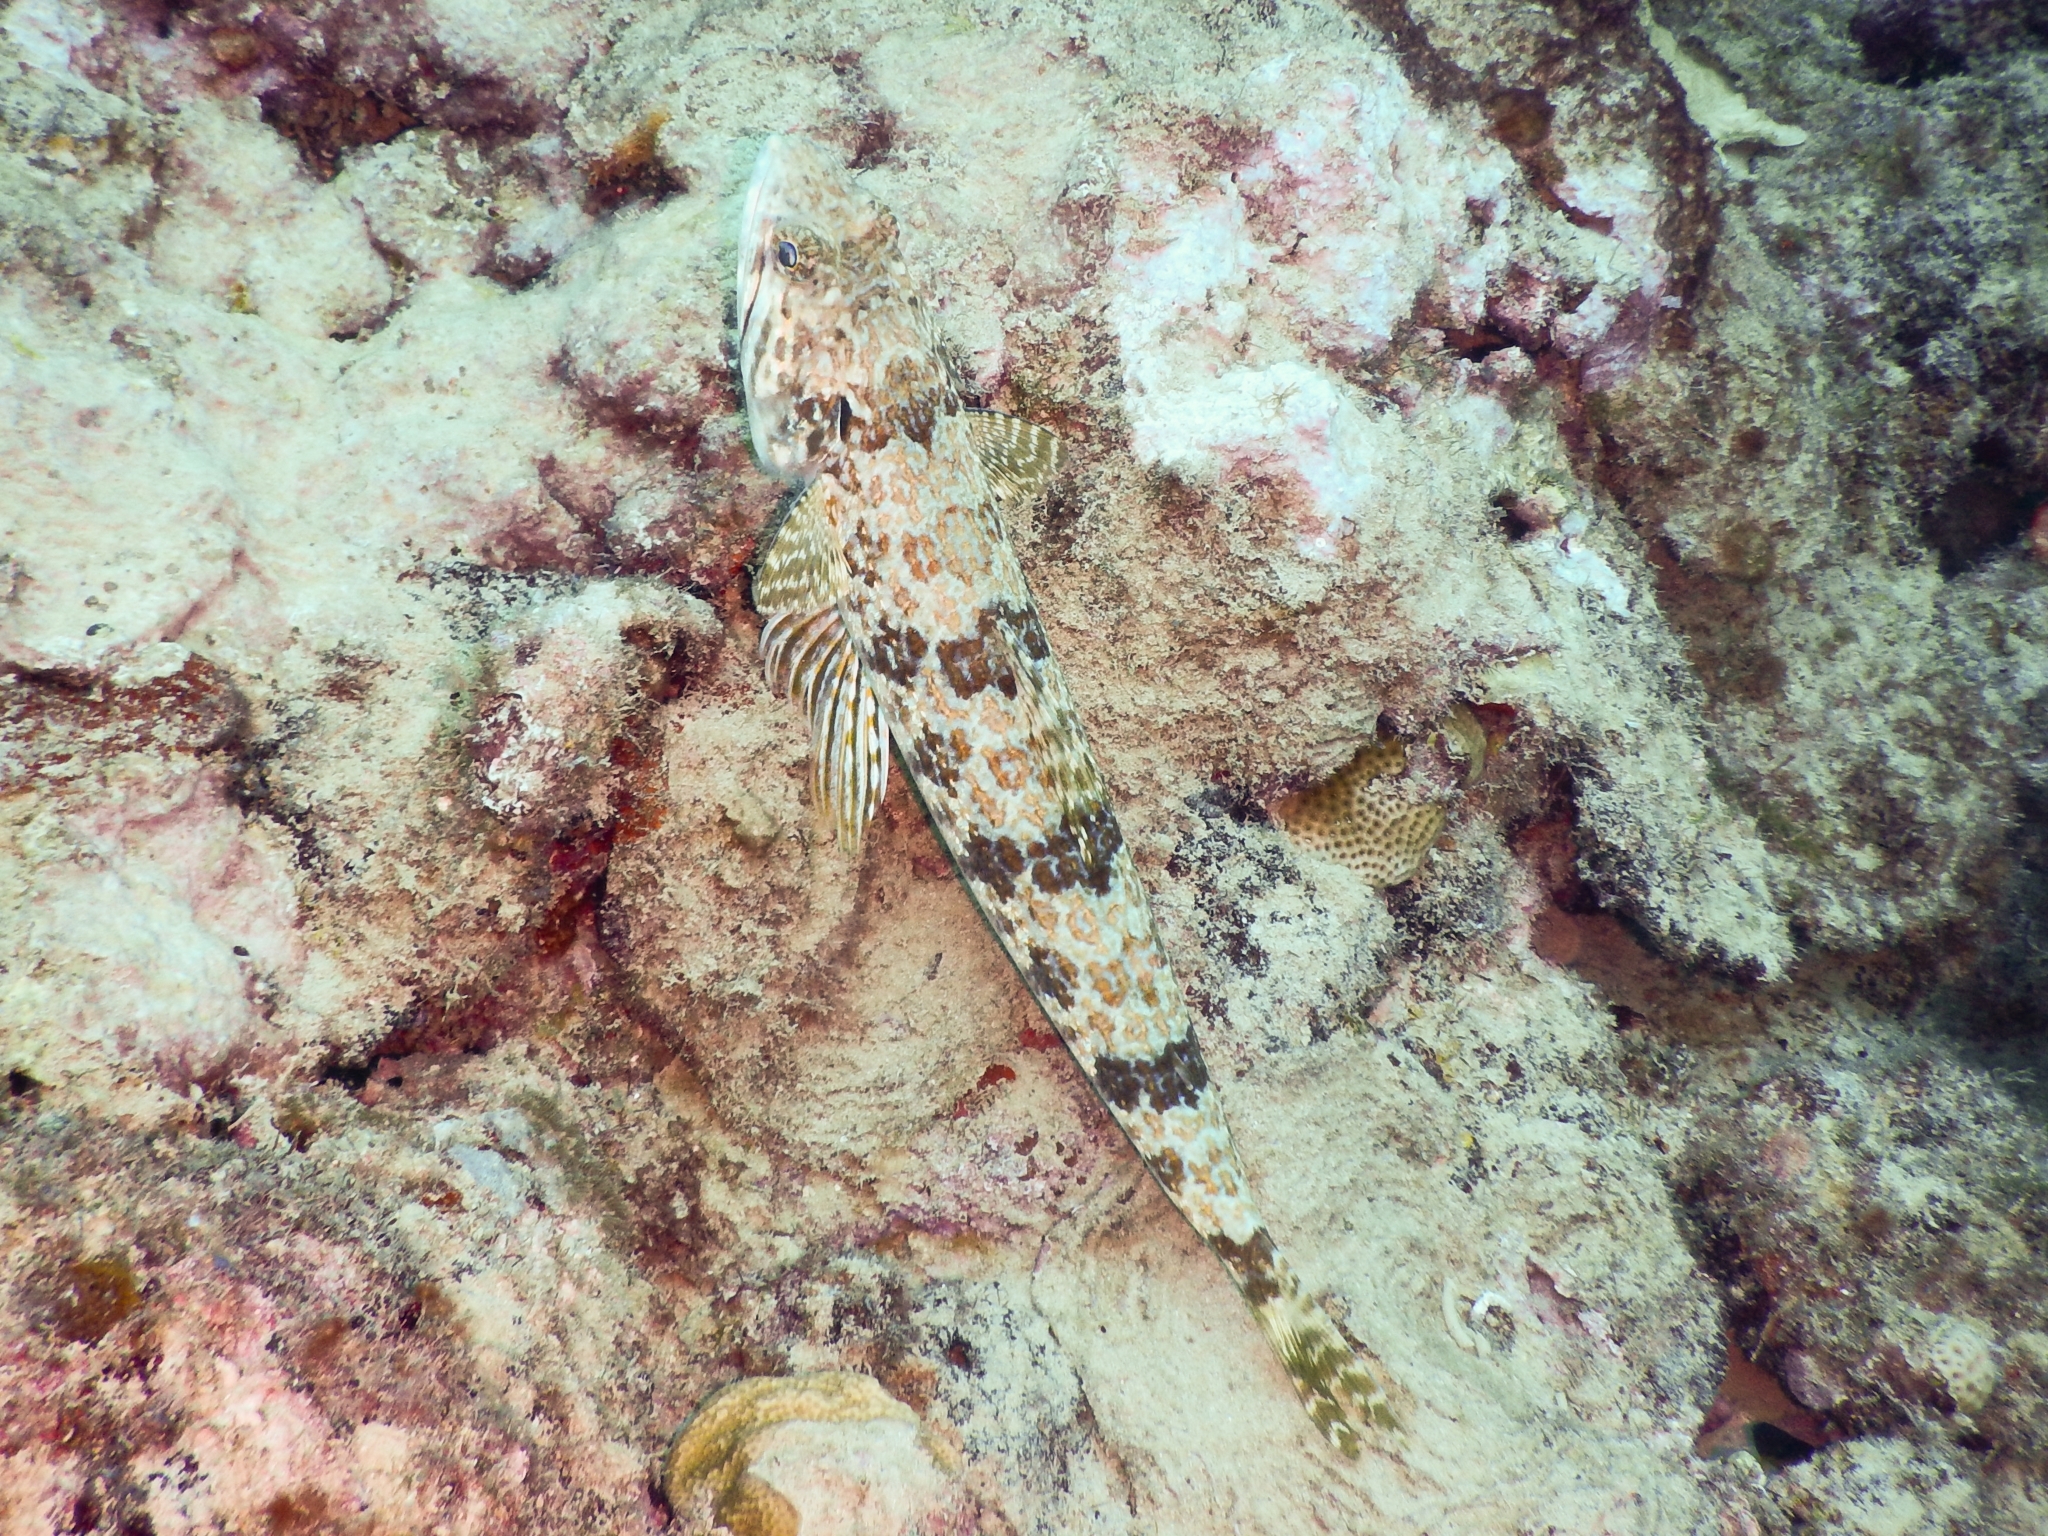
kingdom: Animalia
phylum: Chordata
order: Aulopiformes
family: Synodontidae
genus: Synodus
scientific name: Synodus intermedius
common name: Sand diver
